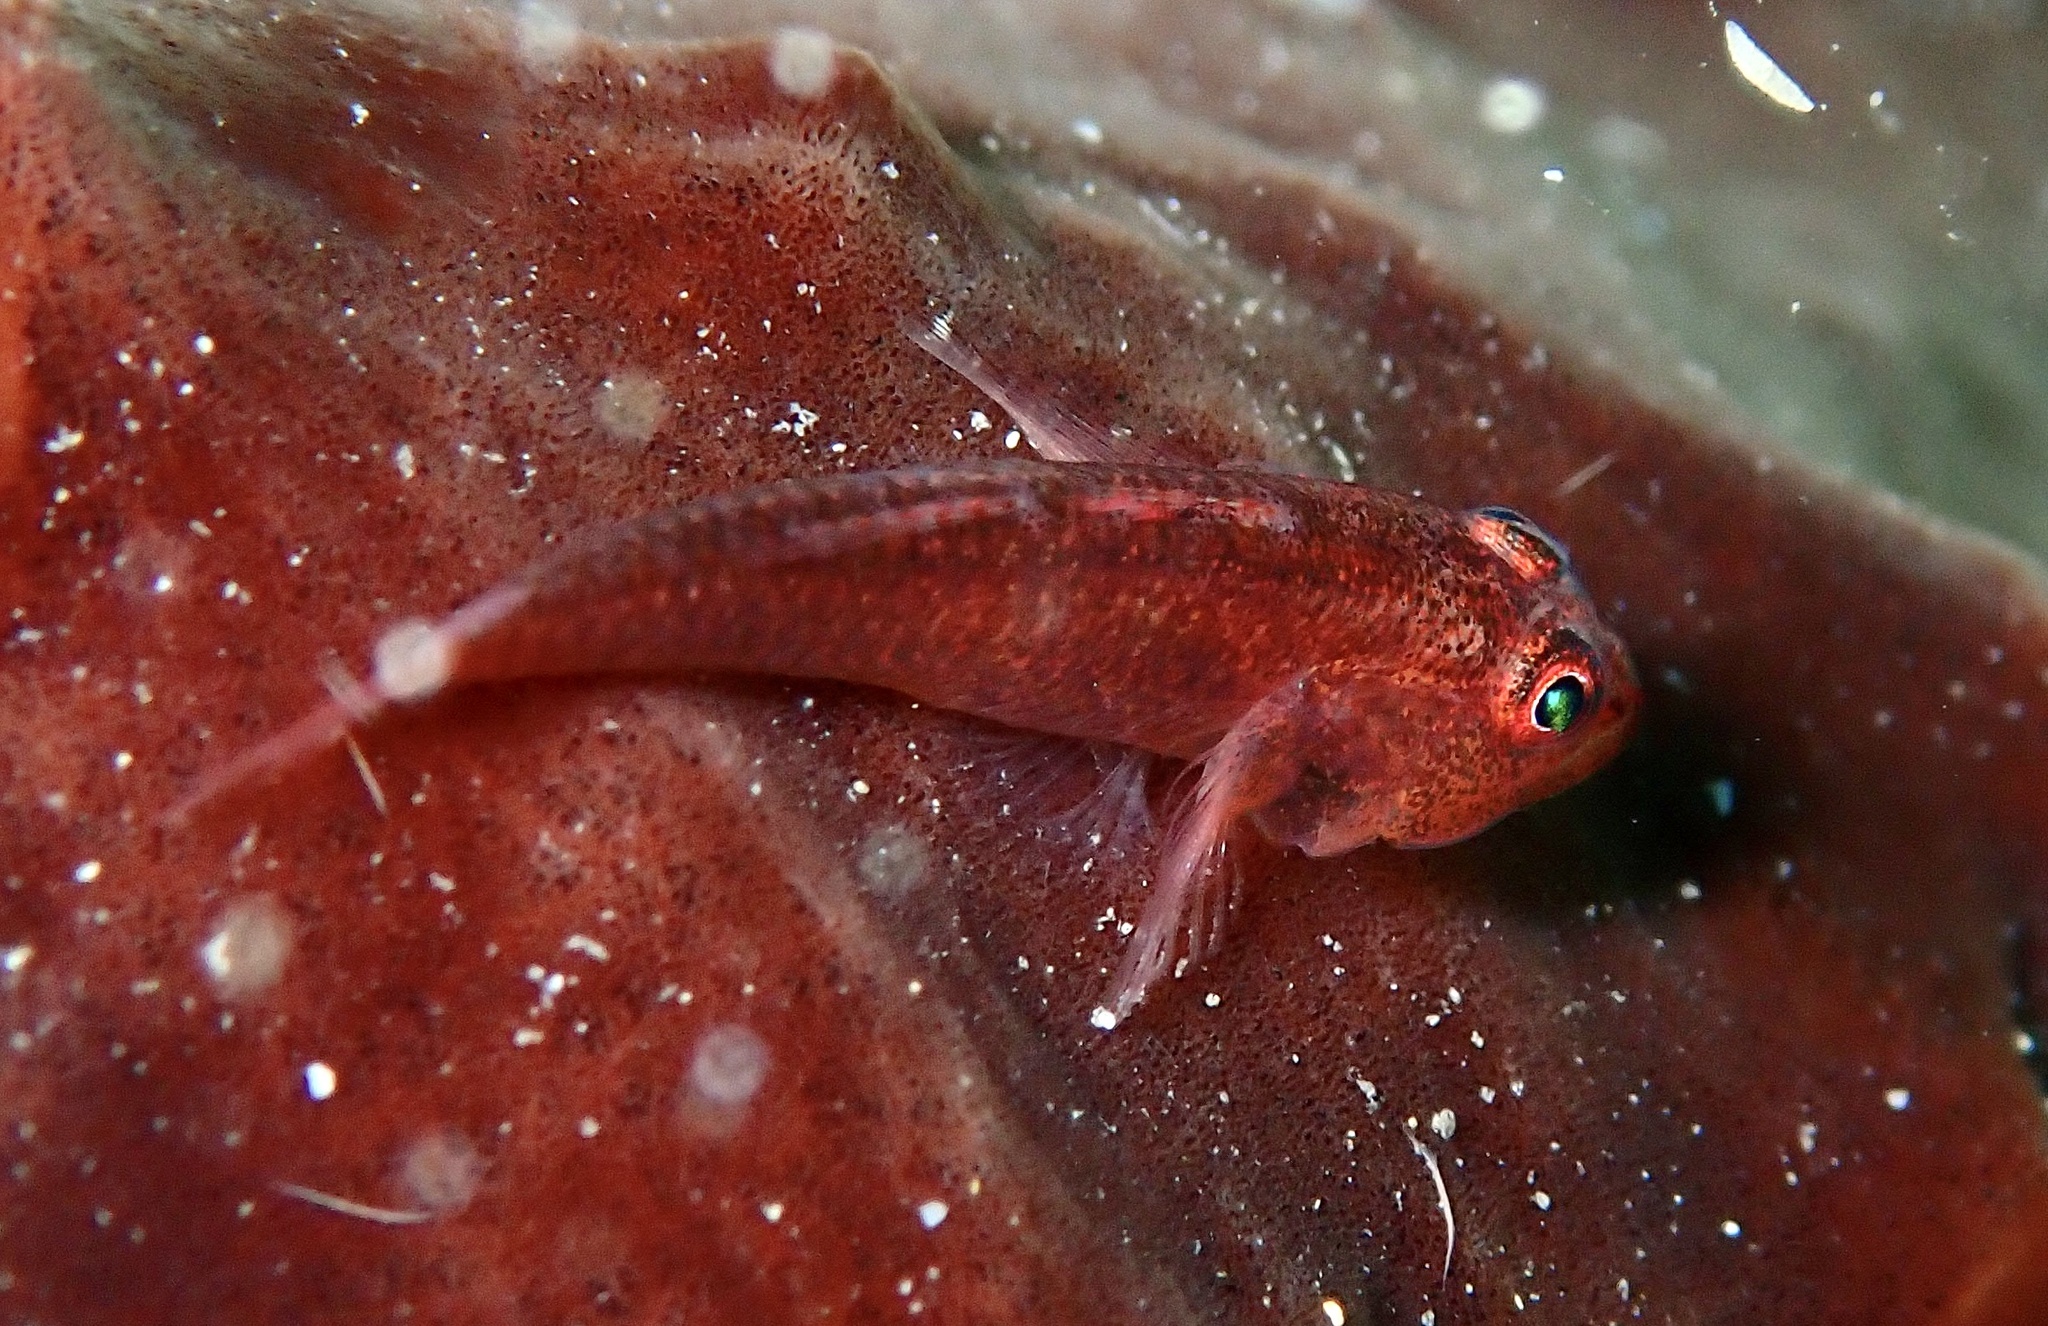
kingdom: Animalia
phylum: Chordata
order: Perciformes
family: Gobiidae
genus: Pleurosicya
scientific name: Pleurosicya mossambica
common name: Common ghost goby
